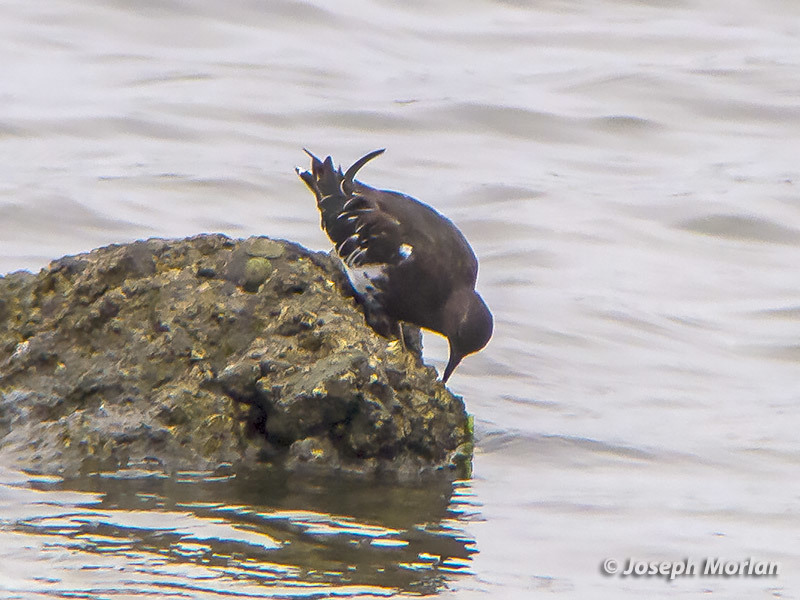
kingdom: Animalia
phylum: Chordata
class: Aves
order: Charadriiformes
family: Scolopacidae
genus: Arenaria
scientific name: Arenaria melanocephala
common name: Black turnstone
